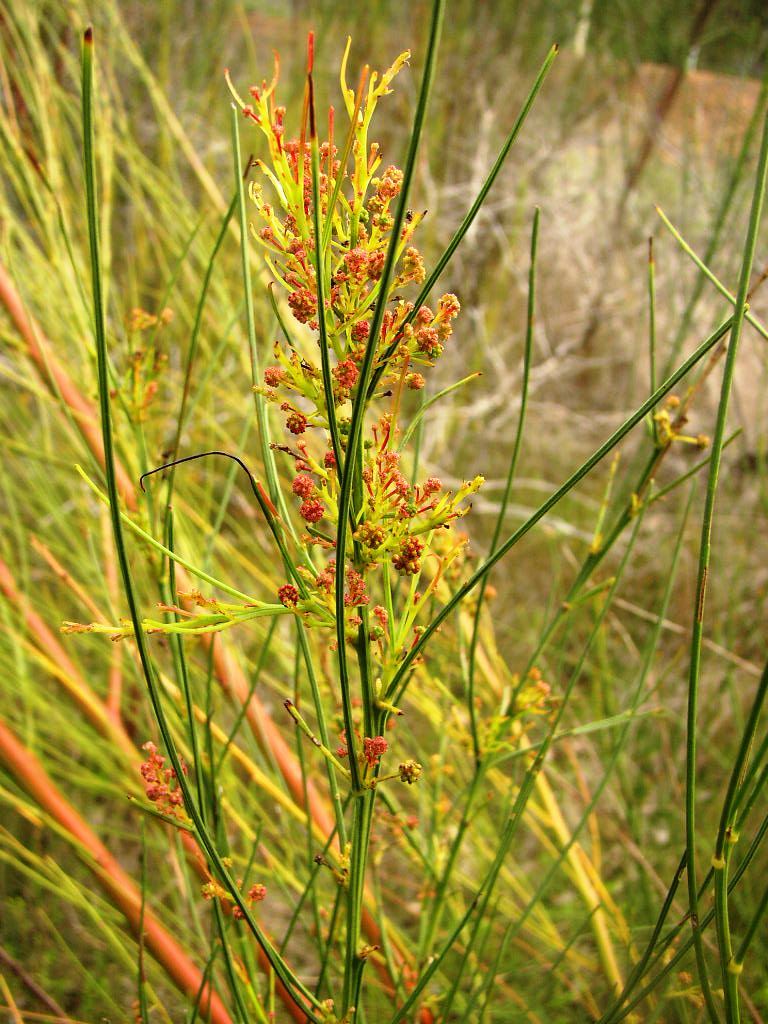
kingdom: Plantae
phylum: Tracheophyta
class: Magnoliopsida
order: Fabales
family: Fabaceae
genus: Viminaria
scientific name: Viminaria juncea
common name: Golden spray
